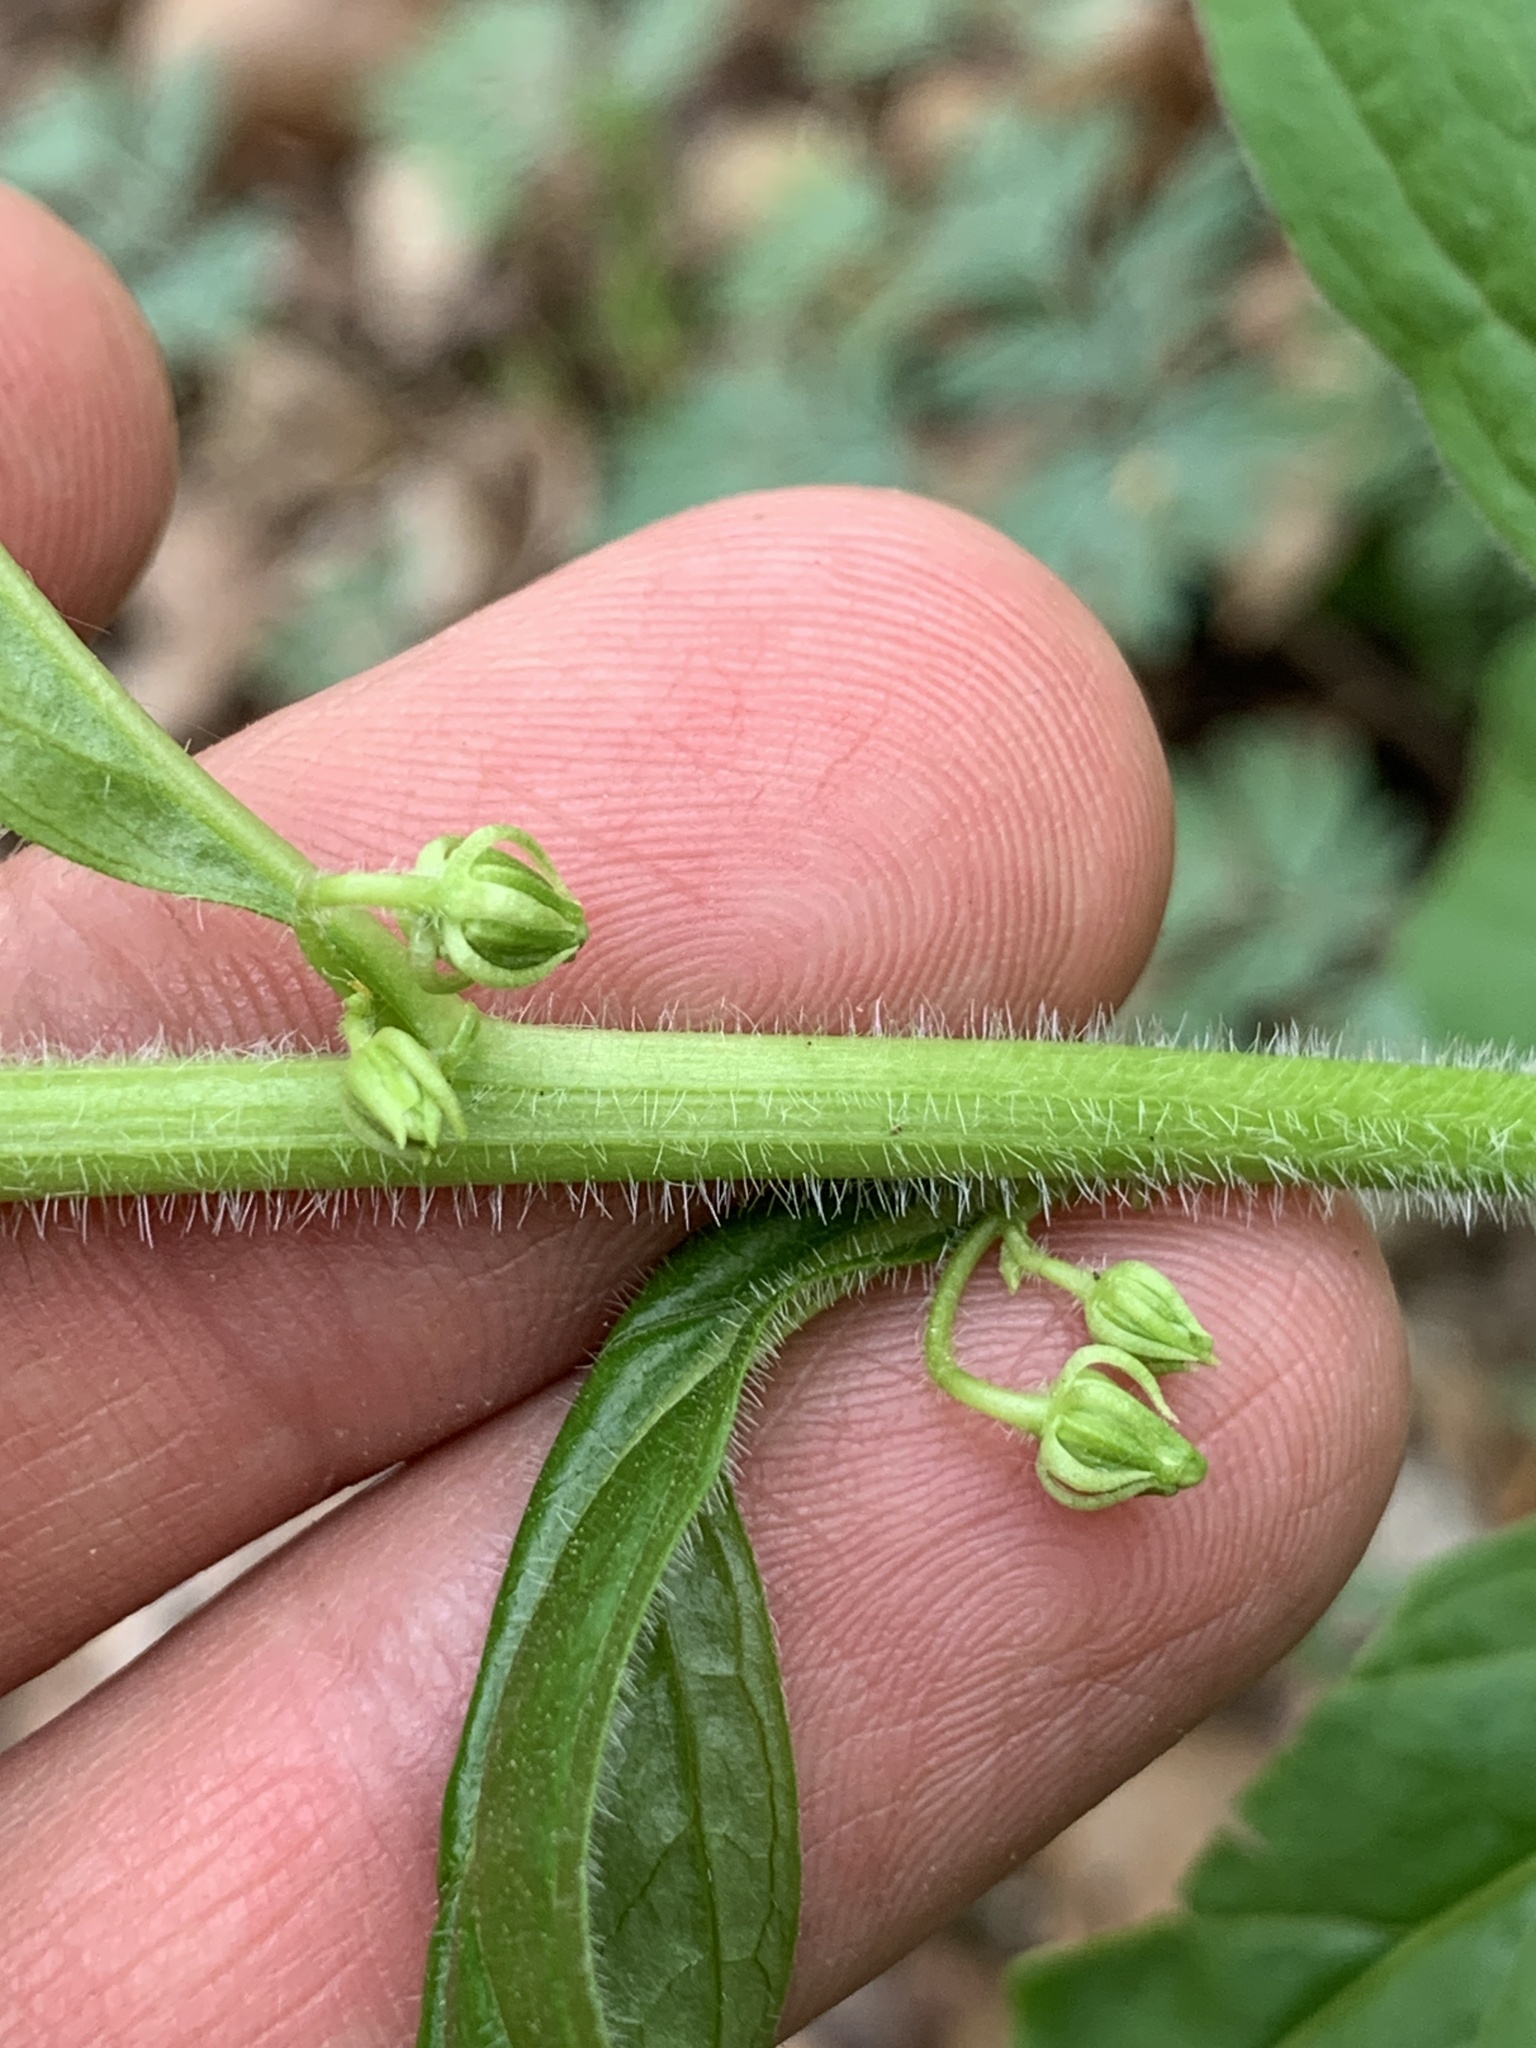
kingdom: Plantae
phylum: Tracheophyta
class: Magnoliopsida
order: Malpighiales
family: Violaceae
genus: Cubelium
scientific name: Cubelium concolor
